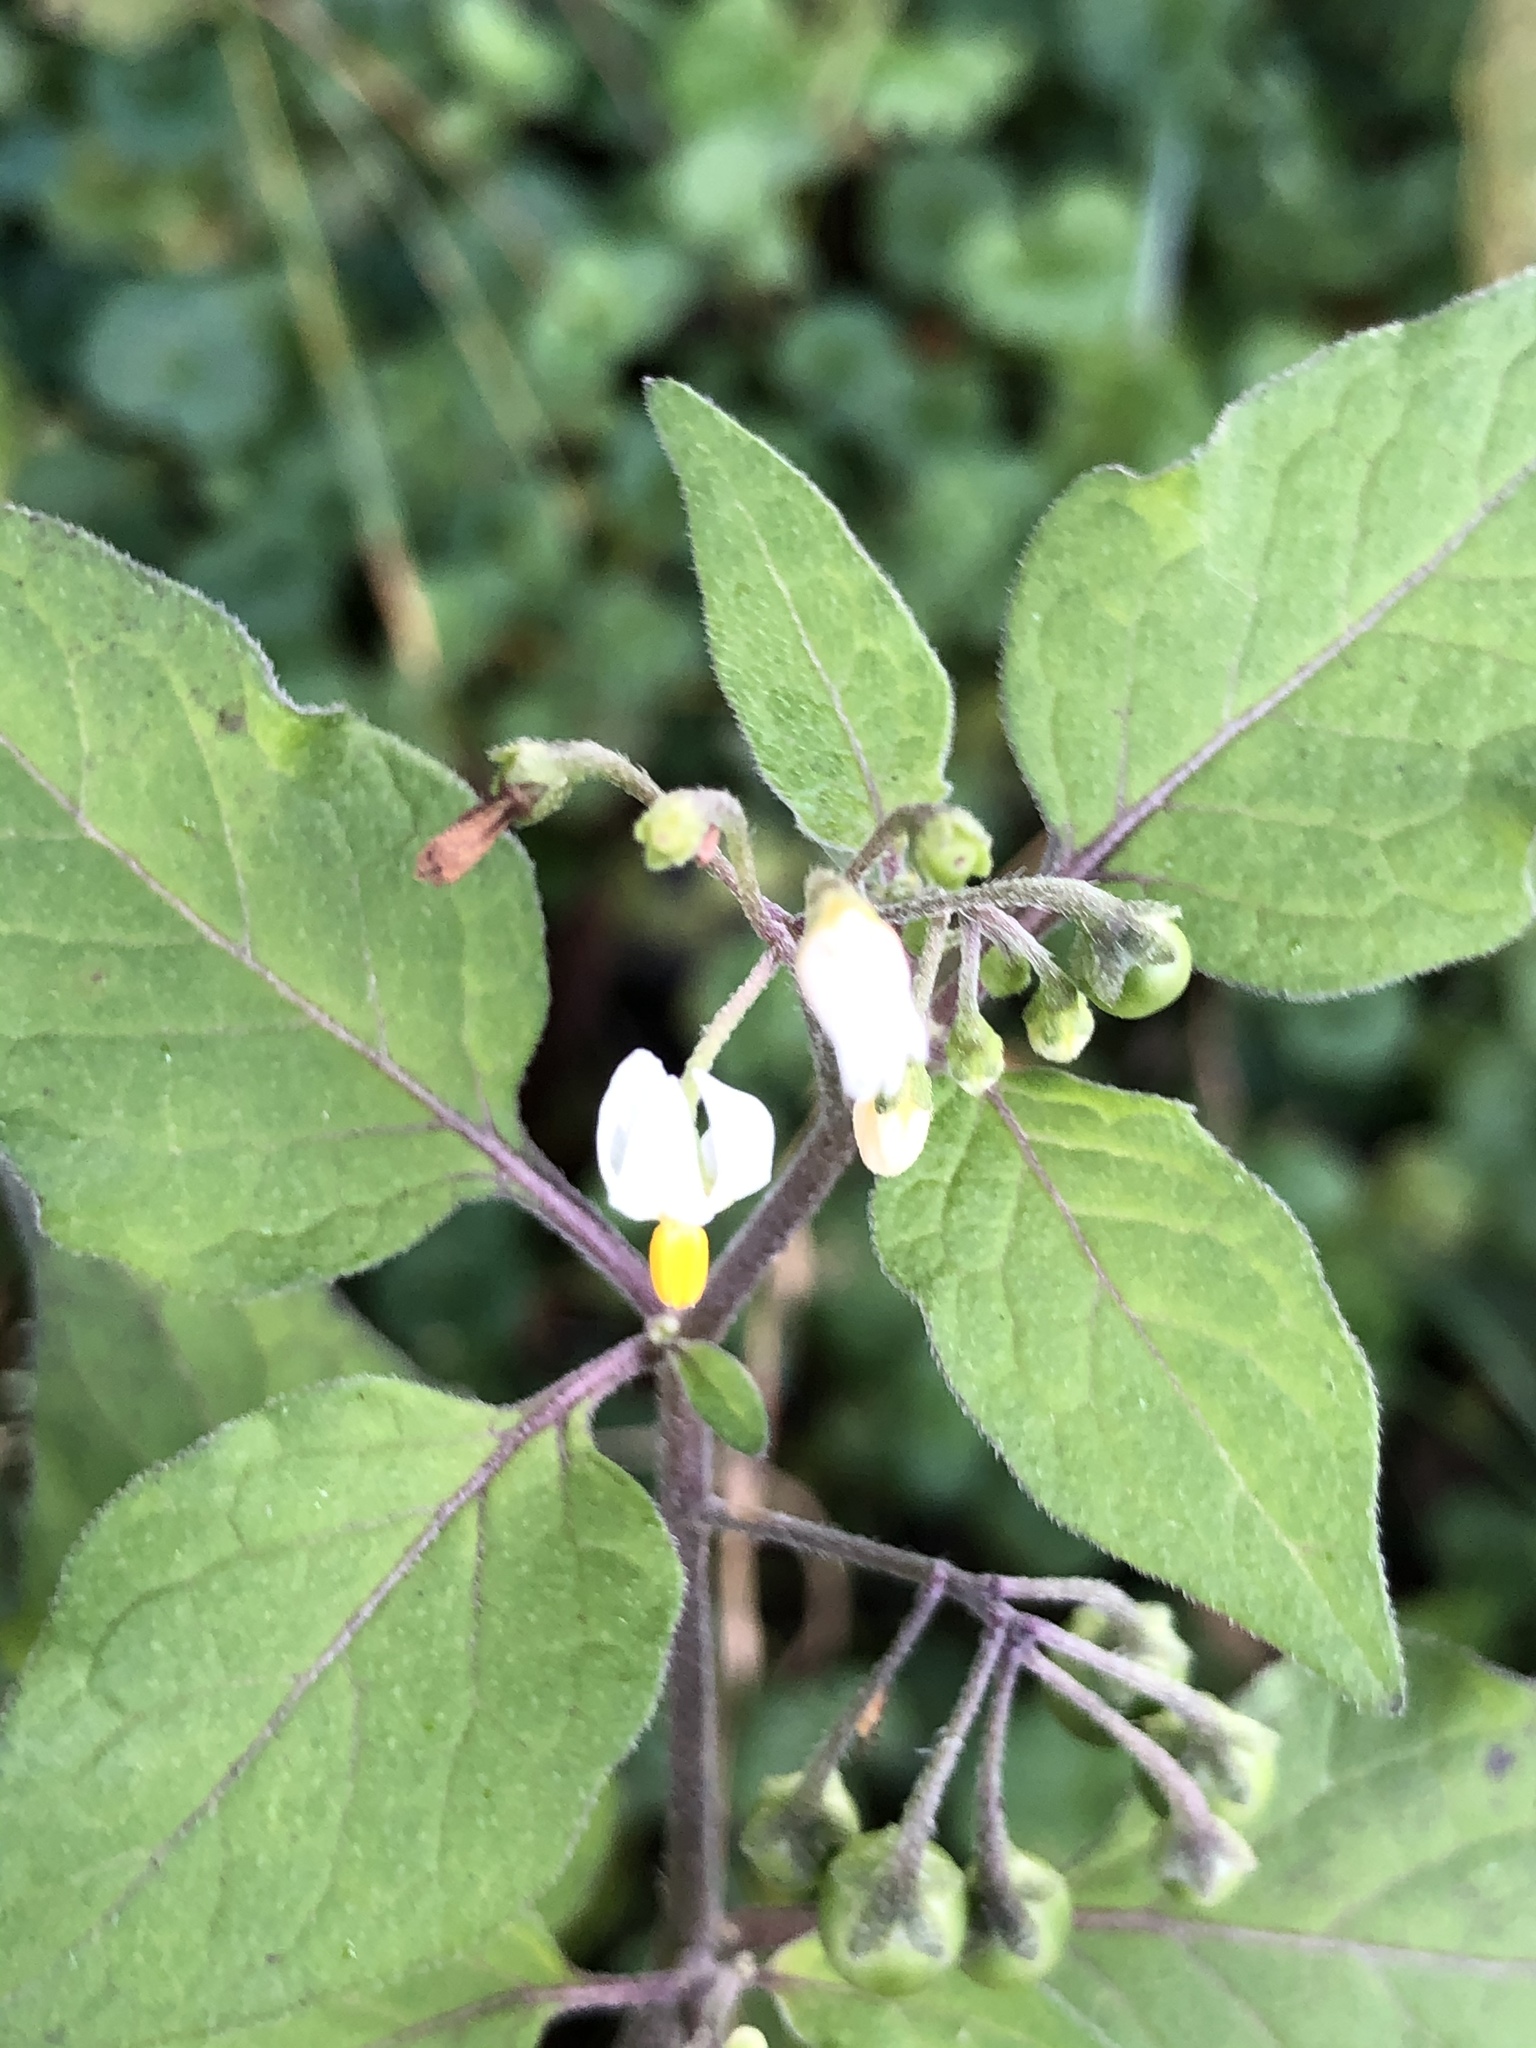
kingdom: Plantae
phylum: Tracheophyta
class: Magnoliopsida
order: Solanales
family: Solanaceae
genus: Solanum
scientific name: Solanum nigrum
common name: Black nightshade
